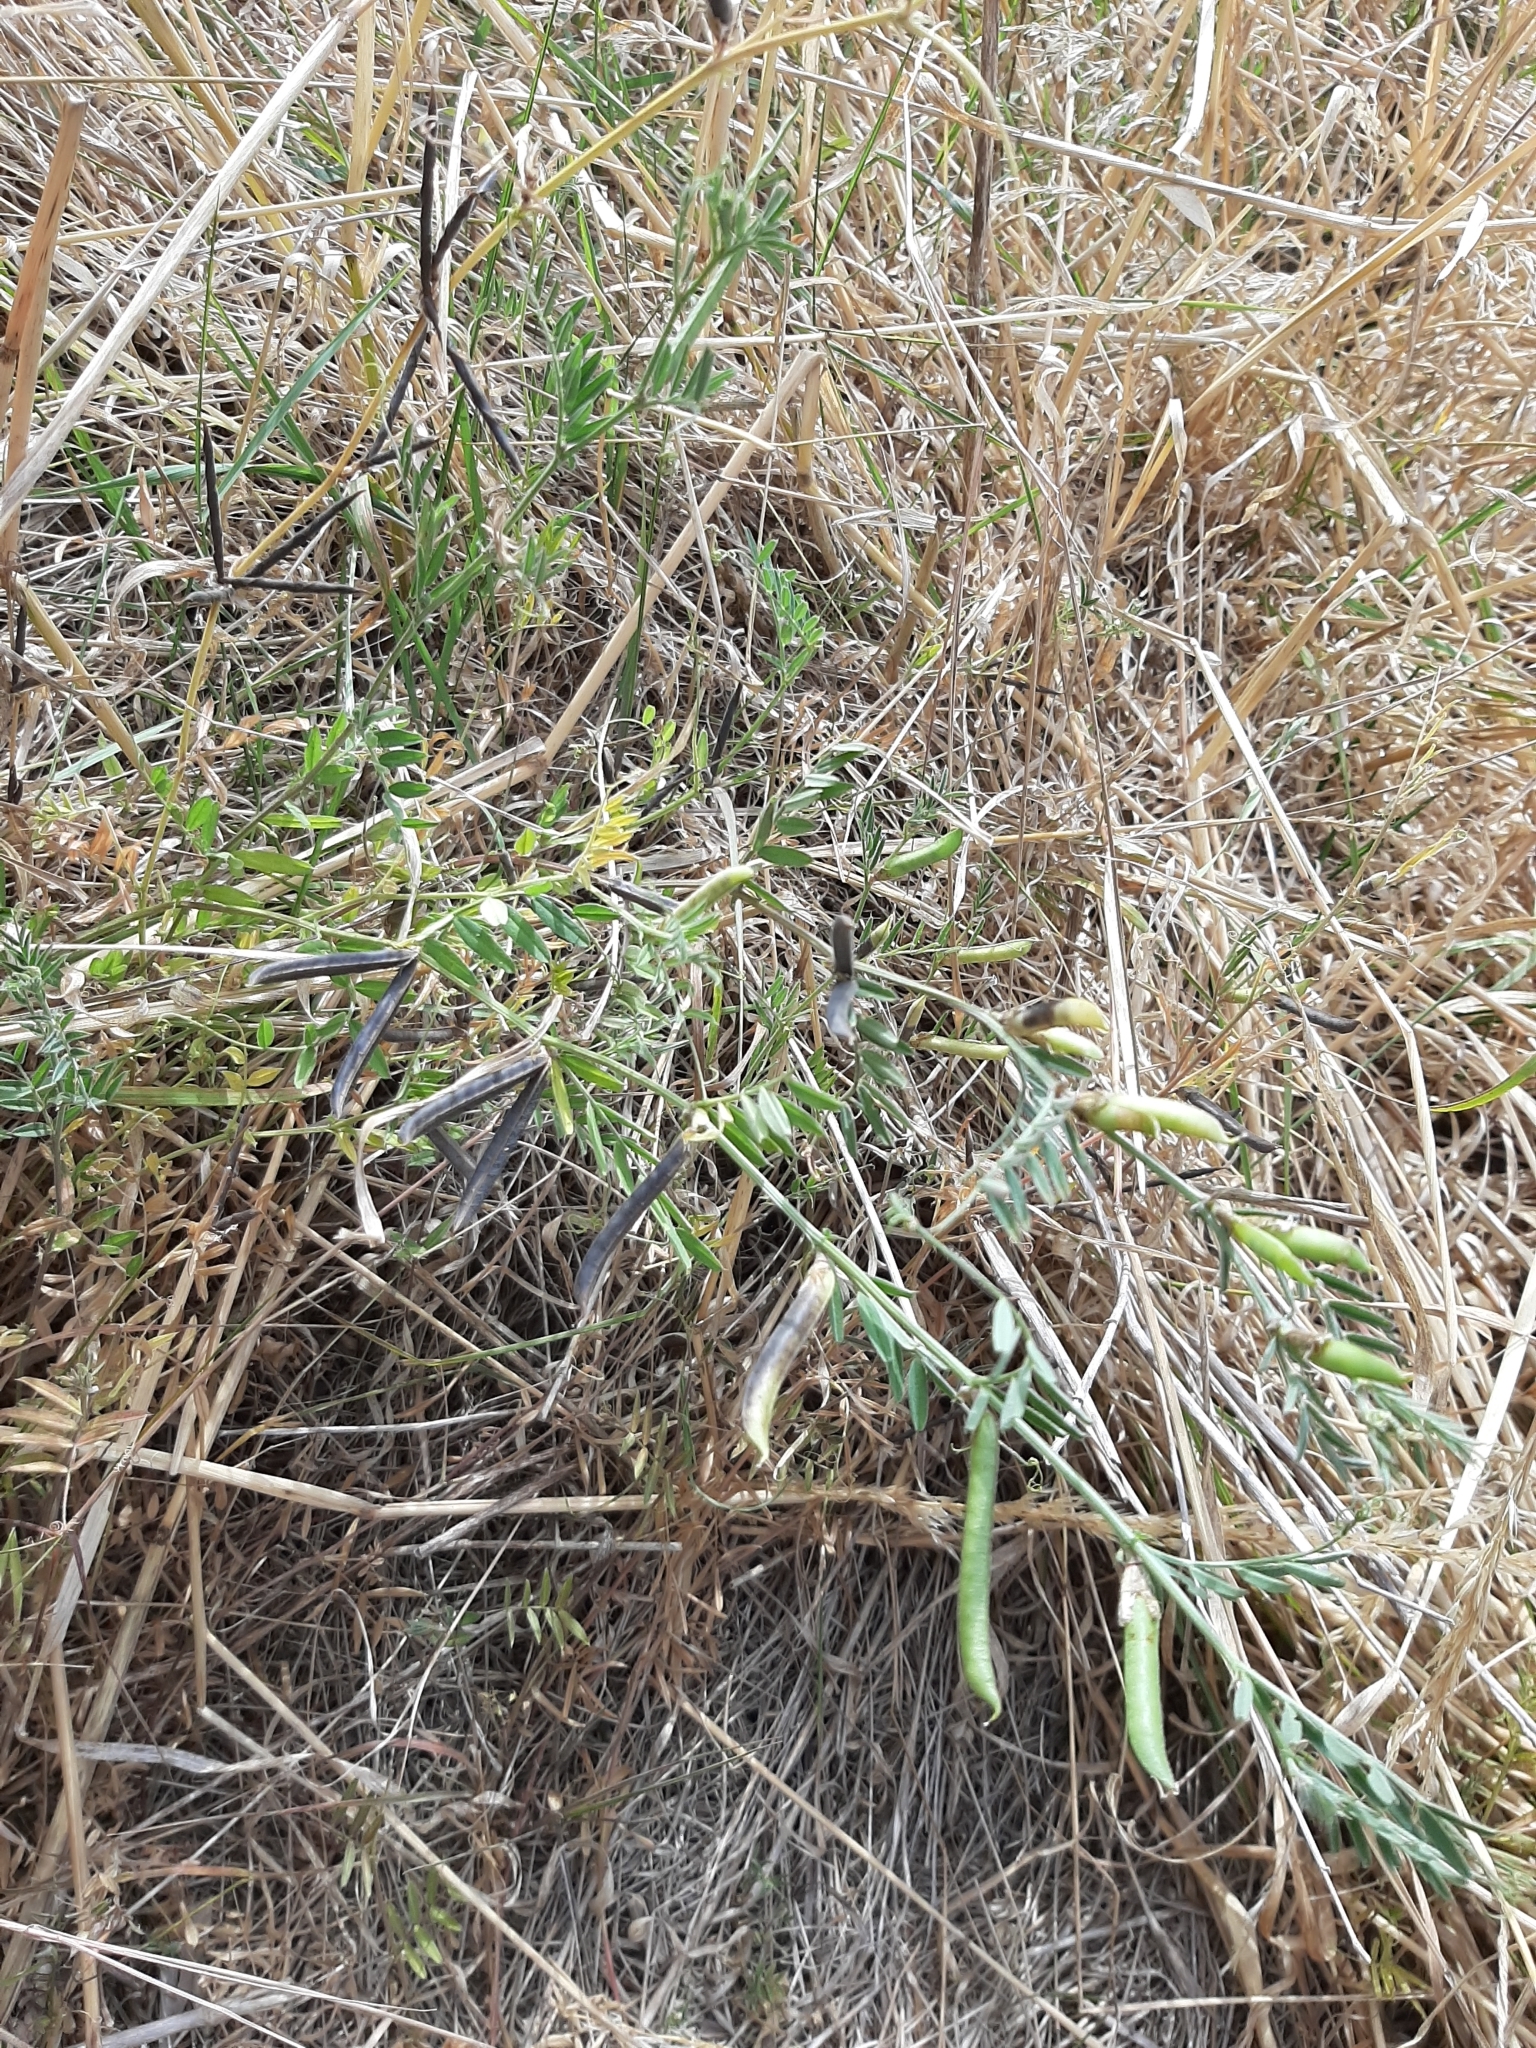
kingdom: Plantae
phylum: Tracheophyta
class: Magnoliopsida
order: Fabales
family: Fabaceae
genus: Vicia
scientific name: Vicia sativa
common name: Garden vetch
